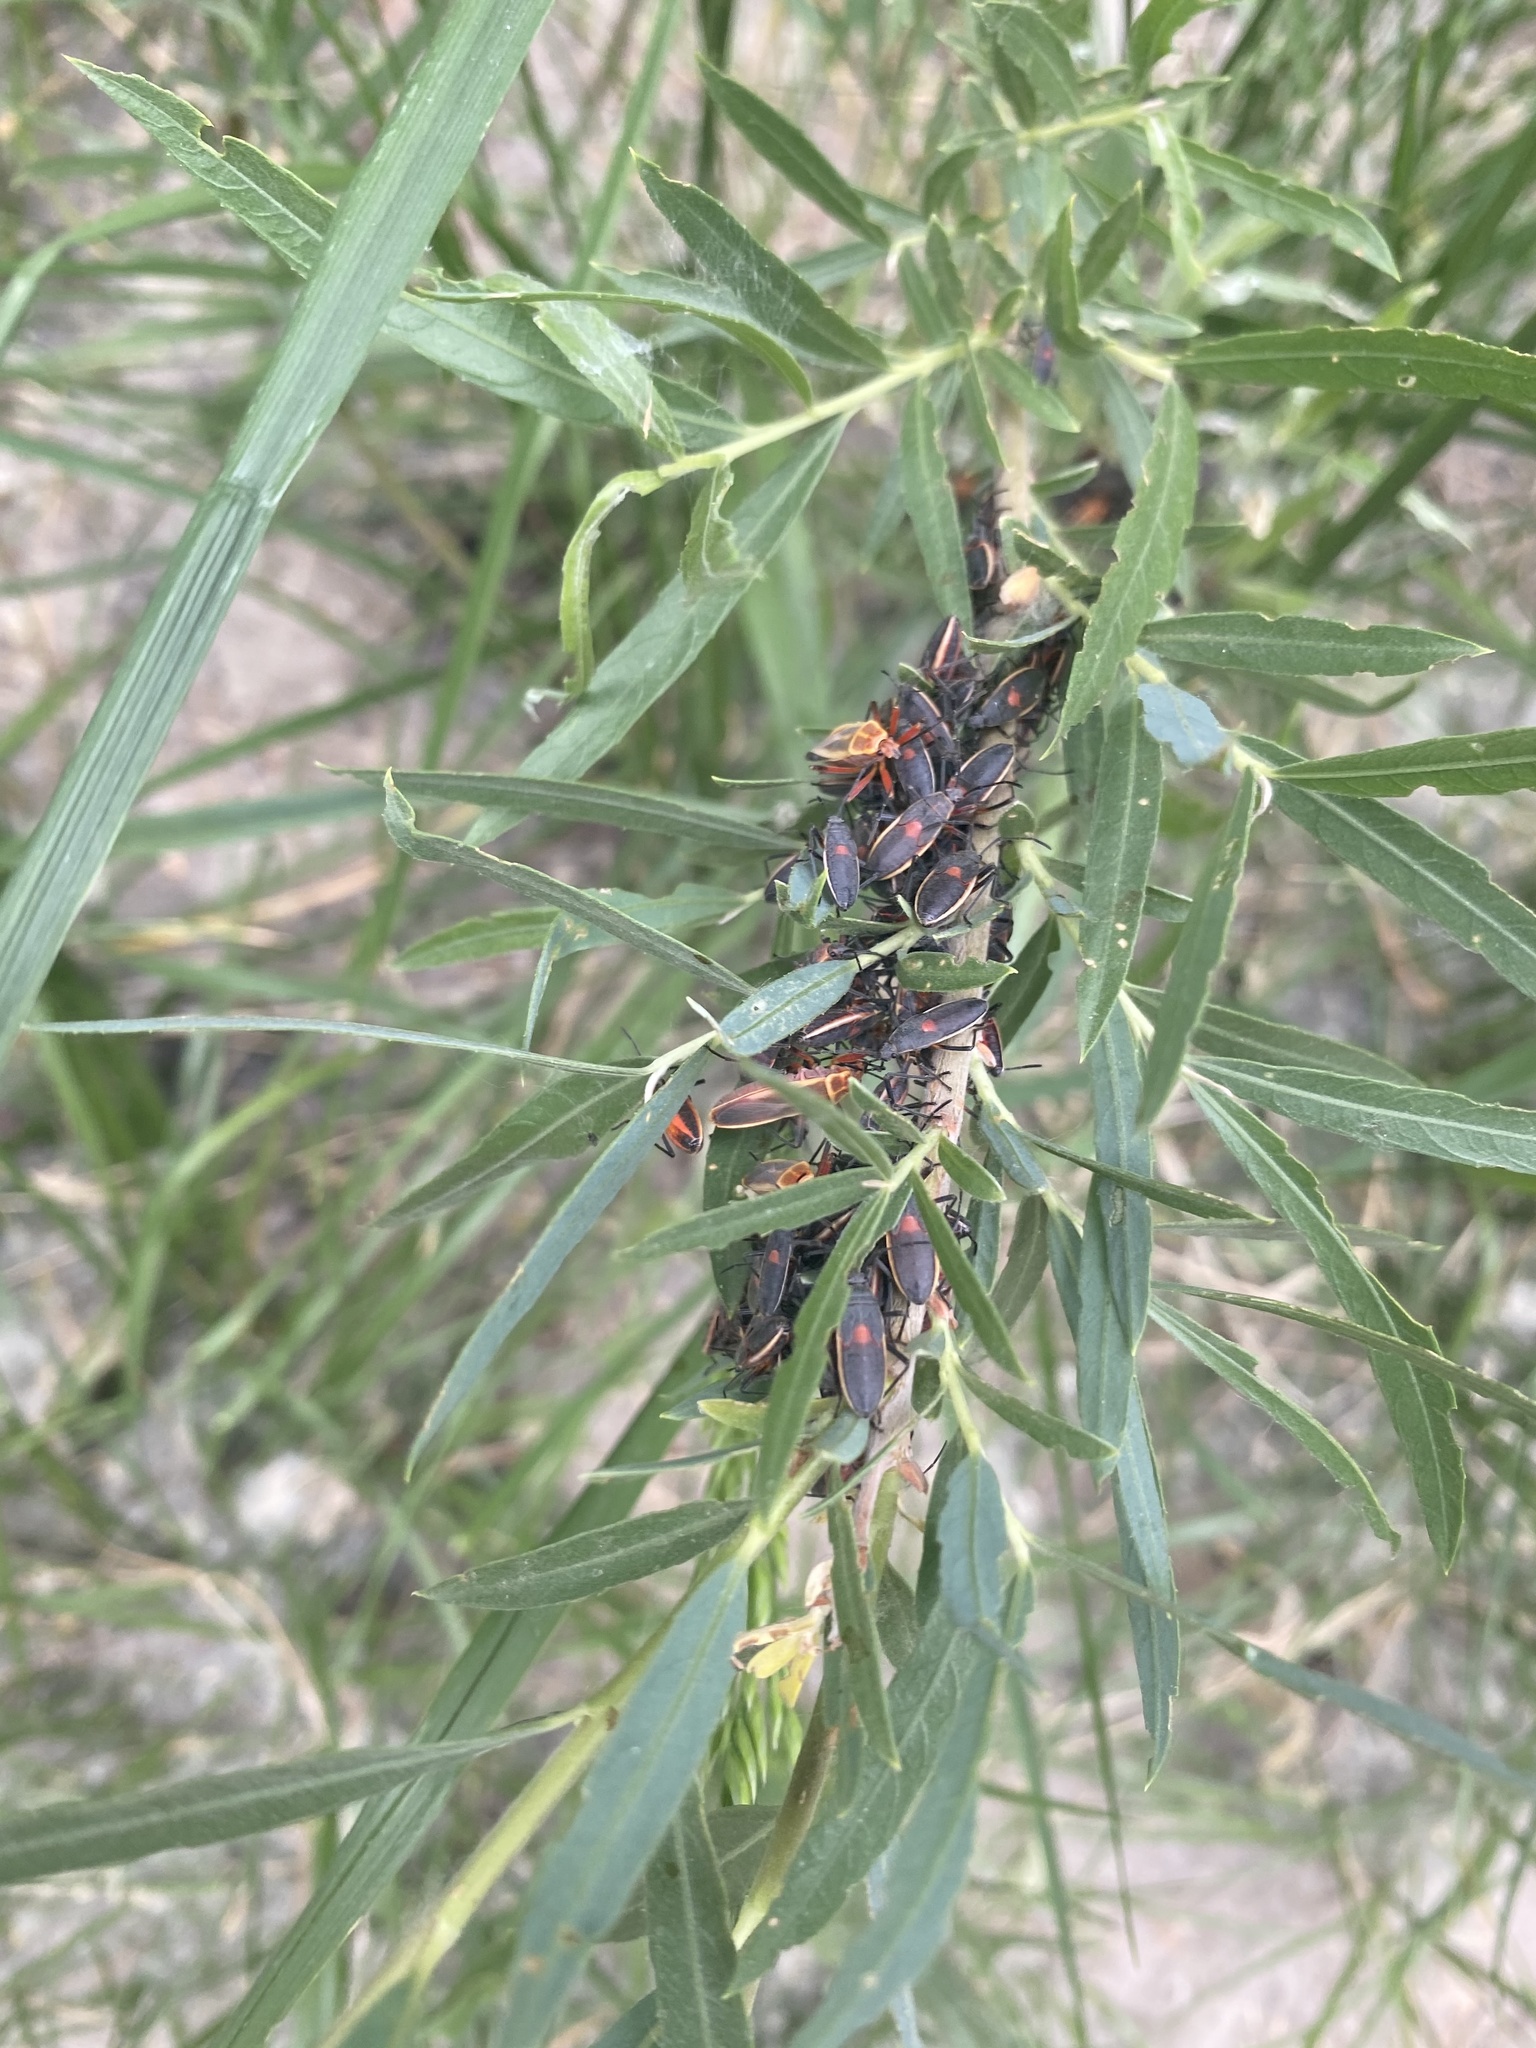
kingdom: Animalia
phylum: Arthropoda
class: Insecta
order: Hemiptera
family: Largidae
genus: Stenomacra
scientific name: Stenomacra marginella
